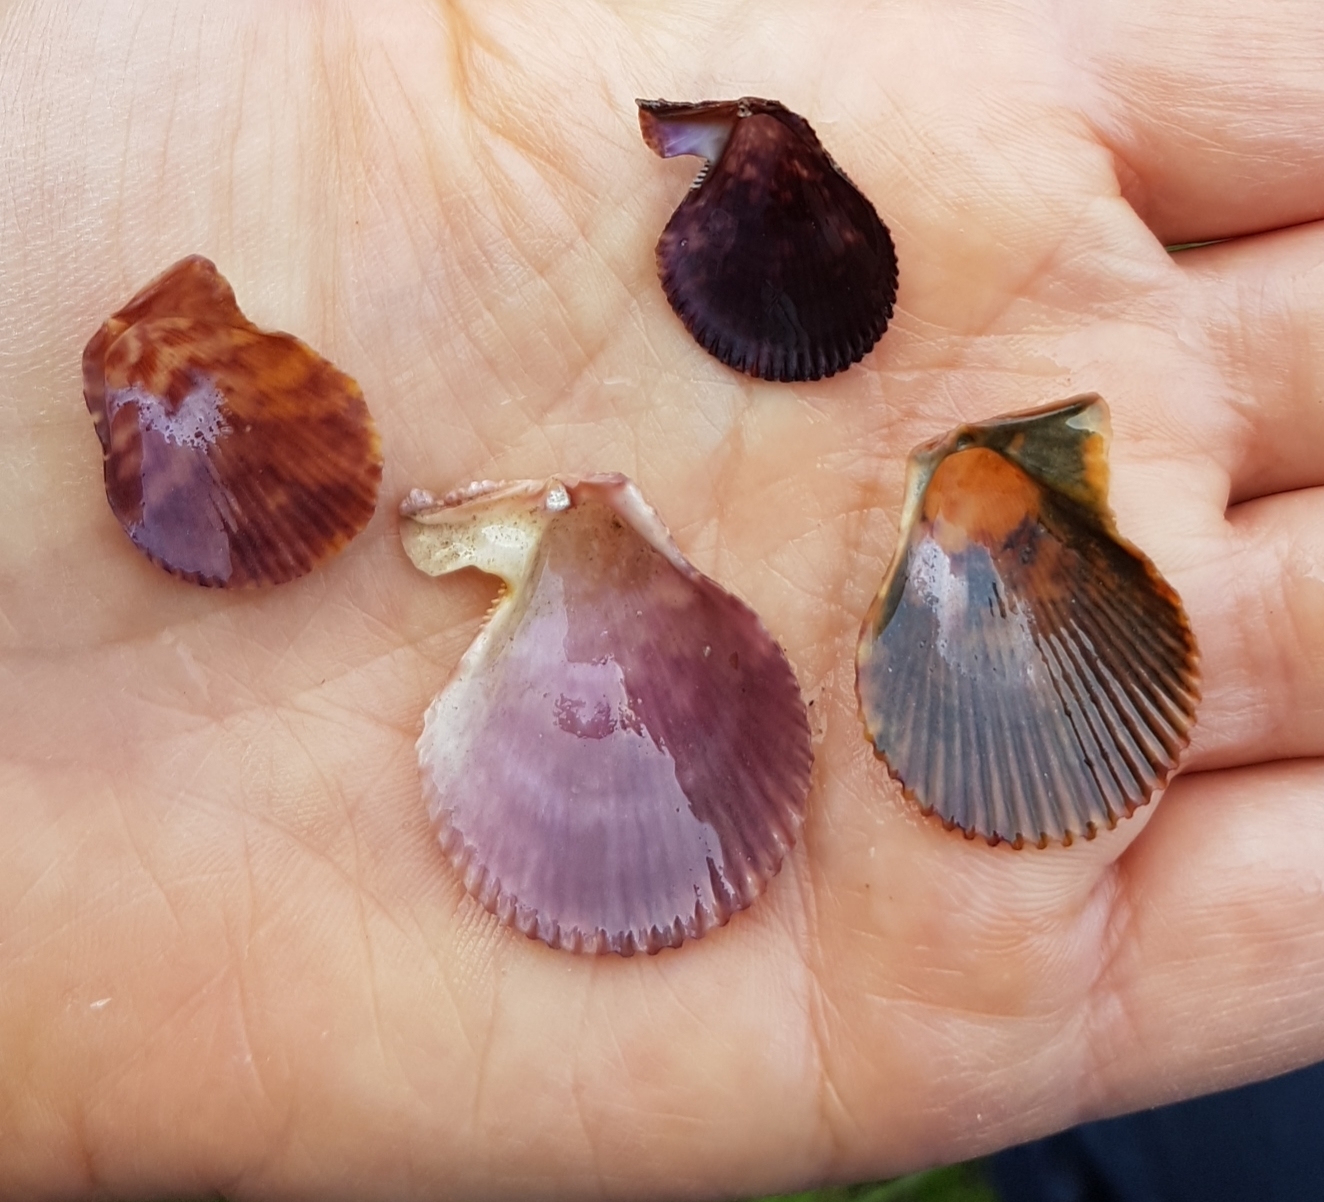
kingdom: Animalia
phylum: Mollusca
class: Bivalvia
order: Pectinida
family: Pectinidae
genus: Mimachlamys
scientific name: Mimachlamys varia
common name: Variegated scallop
